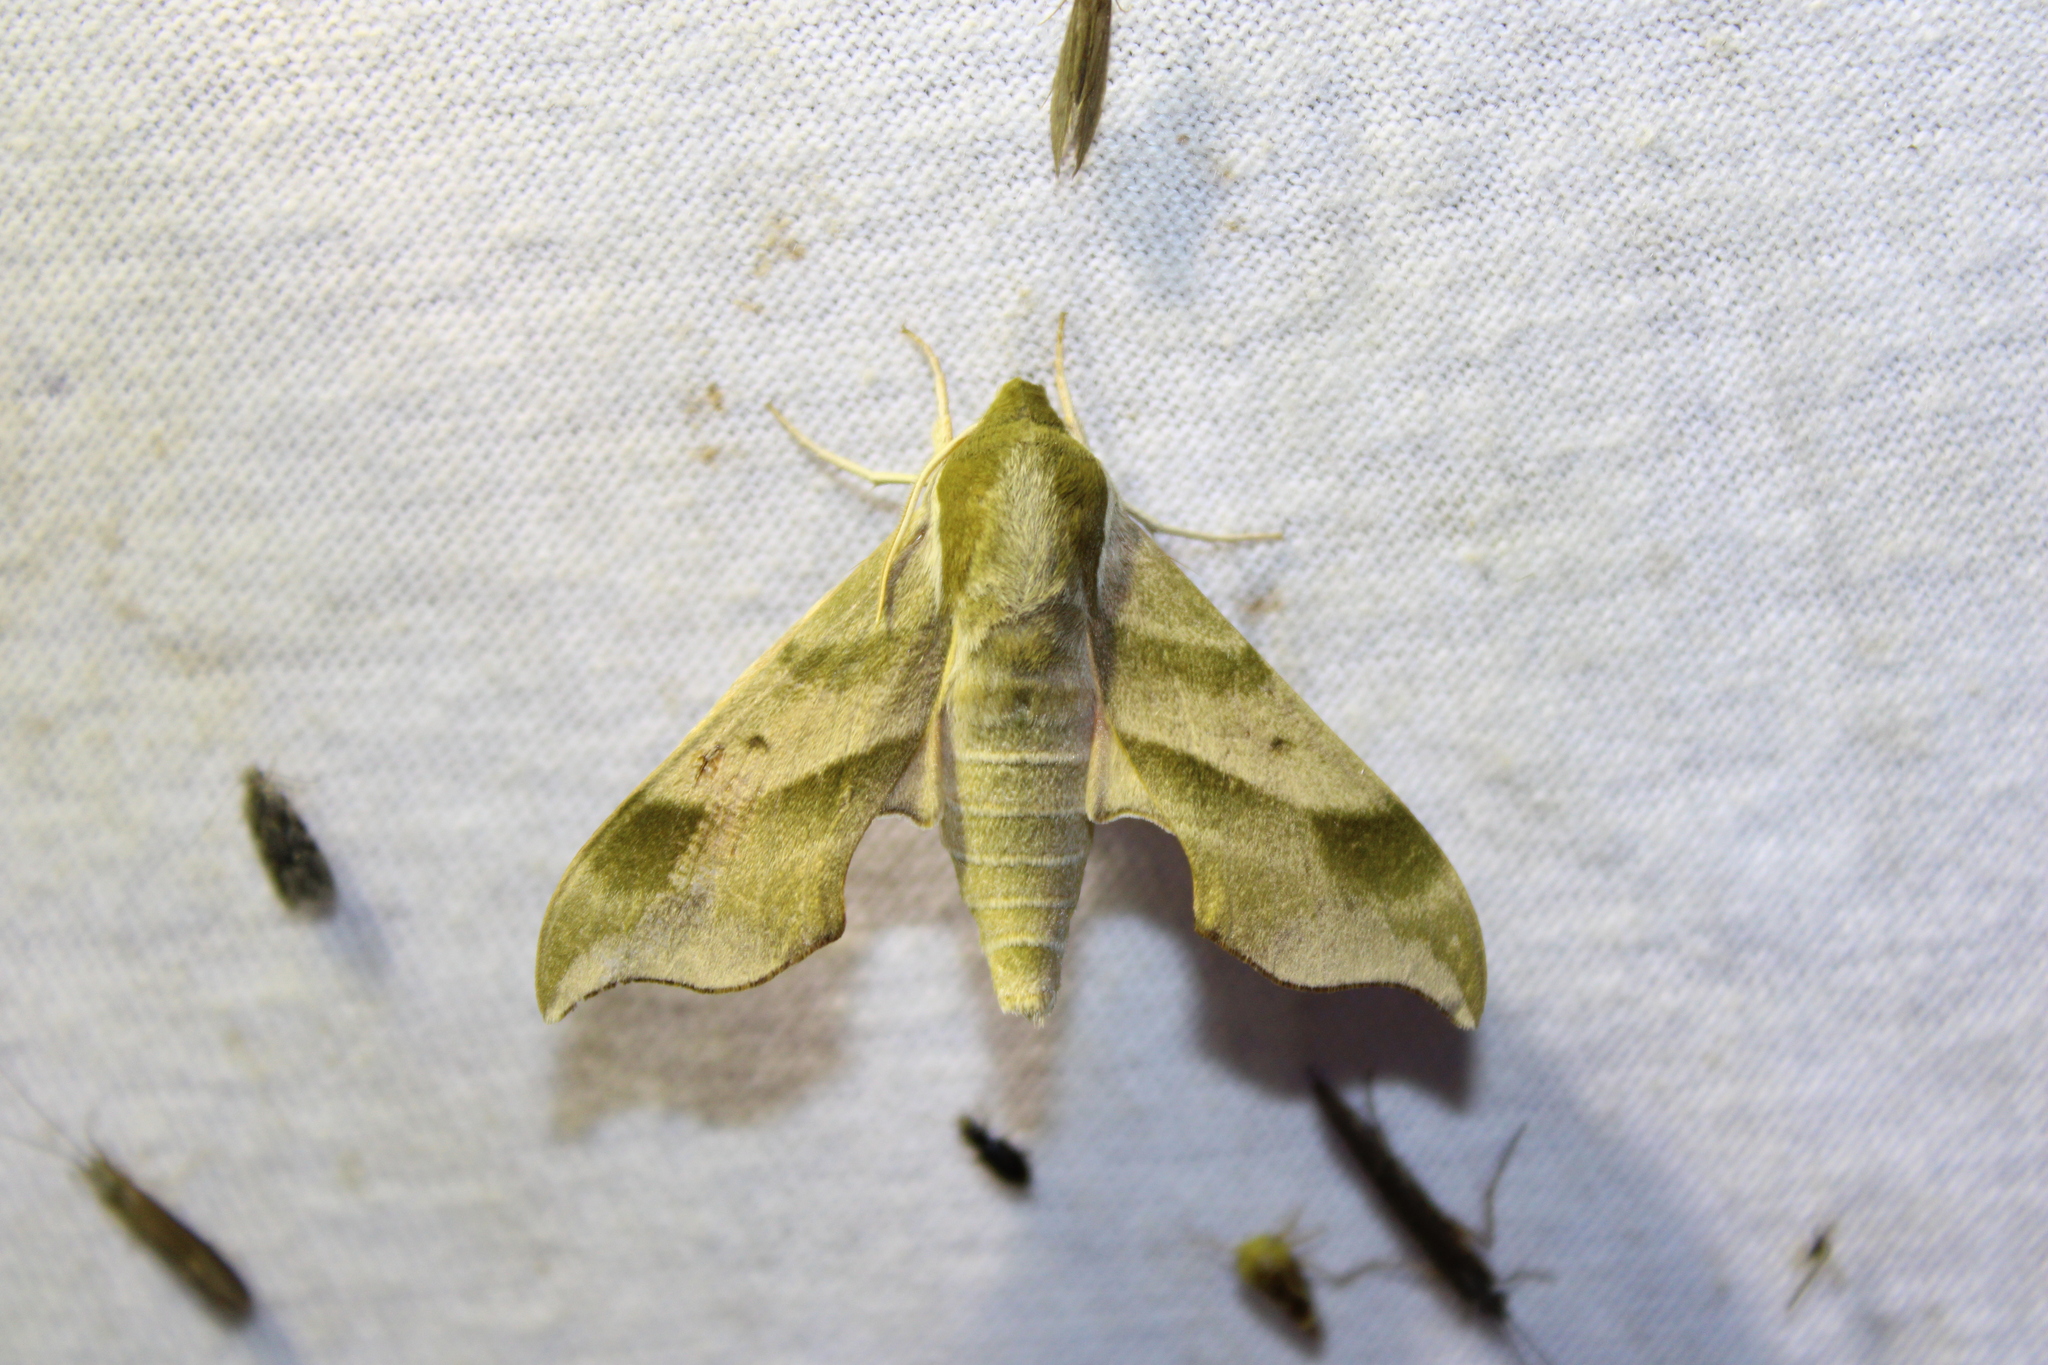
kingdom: Animalia
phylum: Arthropoda
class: Insecta
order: Lepidoptera
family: Sphingidae
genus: Darapsa
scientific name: Darapsa myron
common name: Hog sphinx
